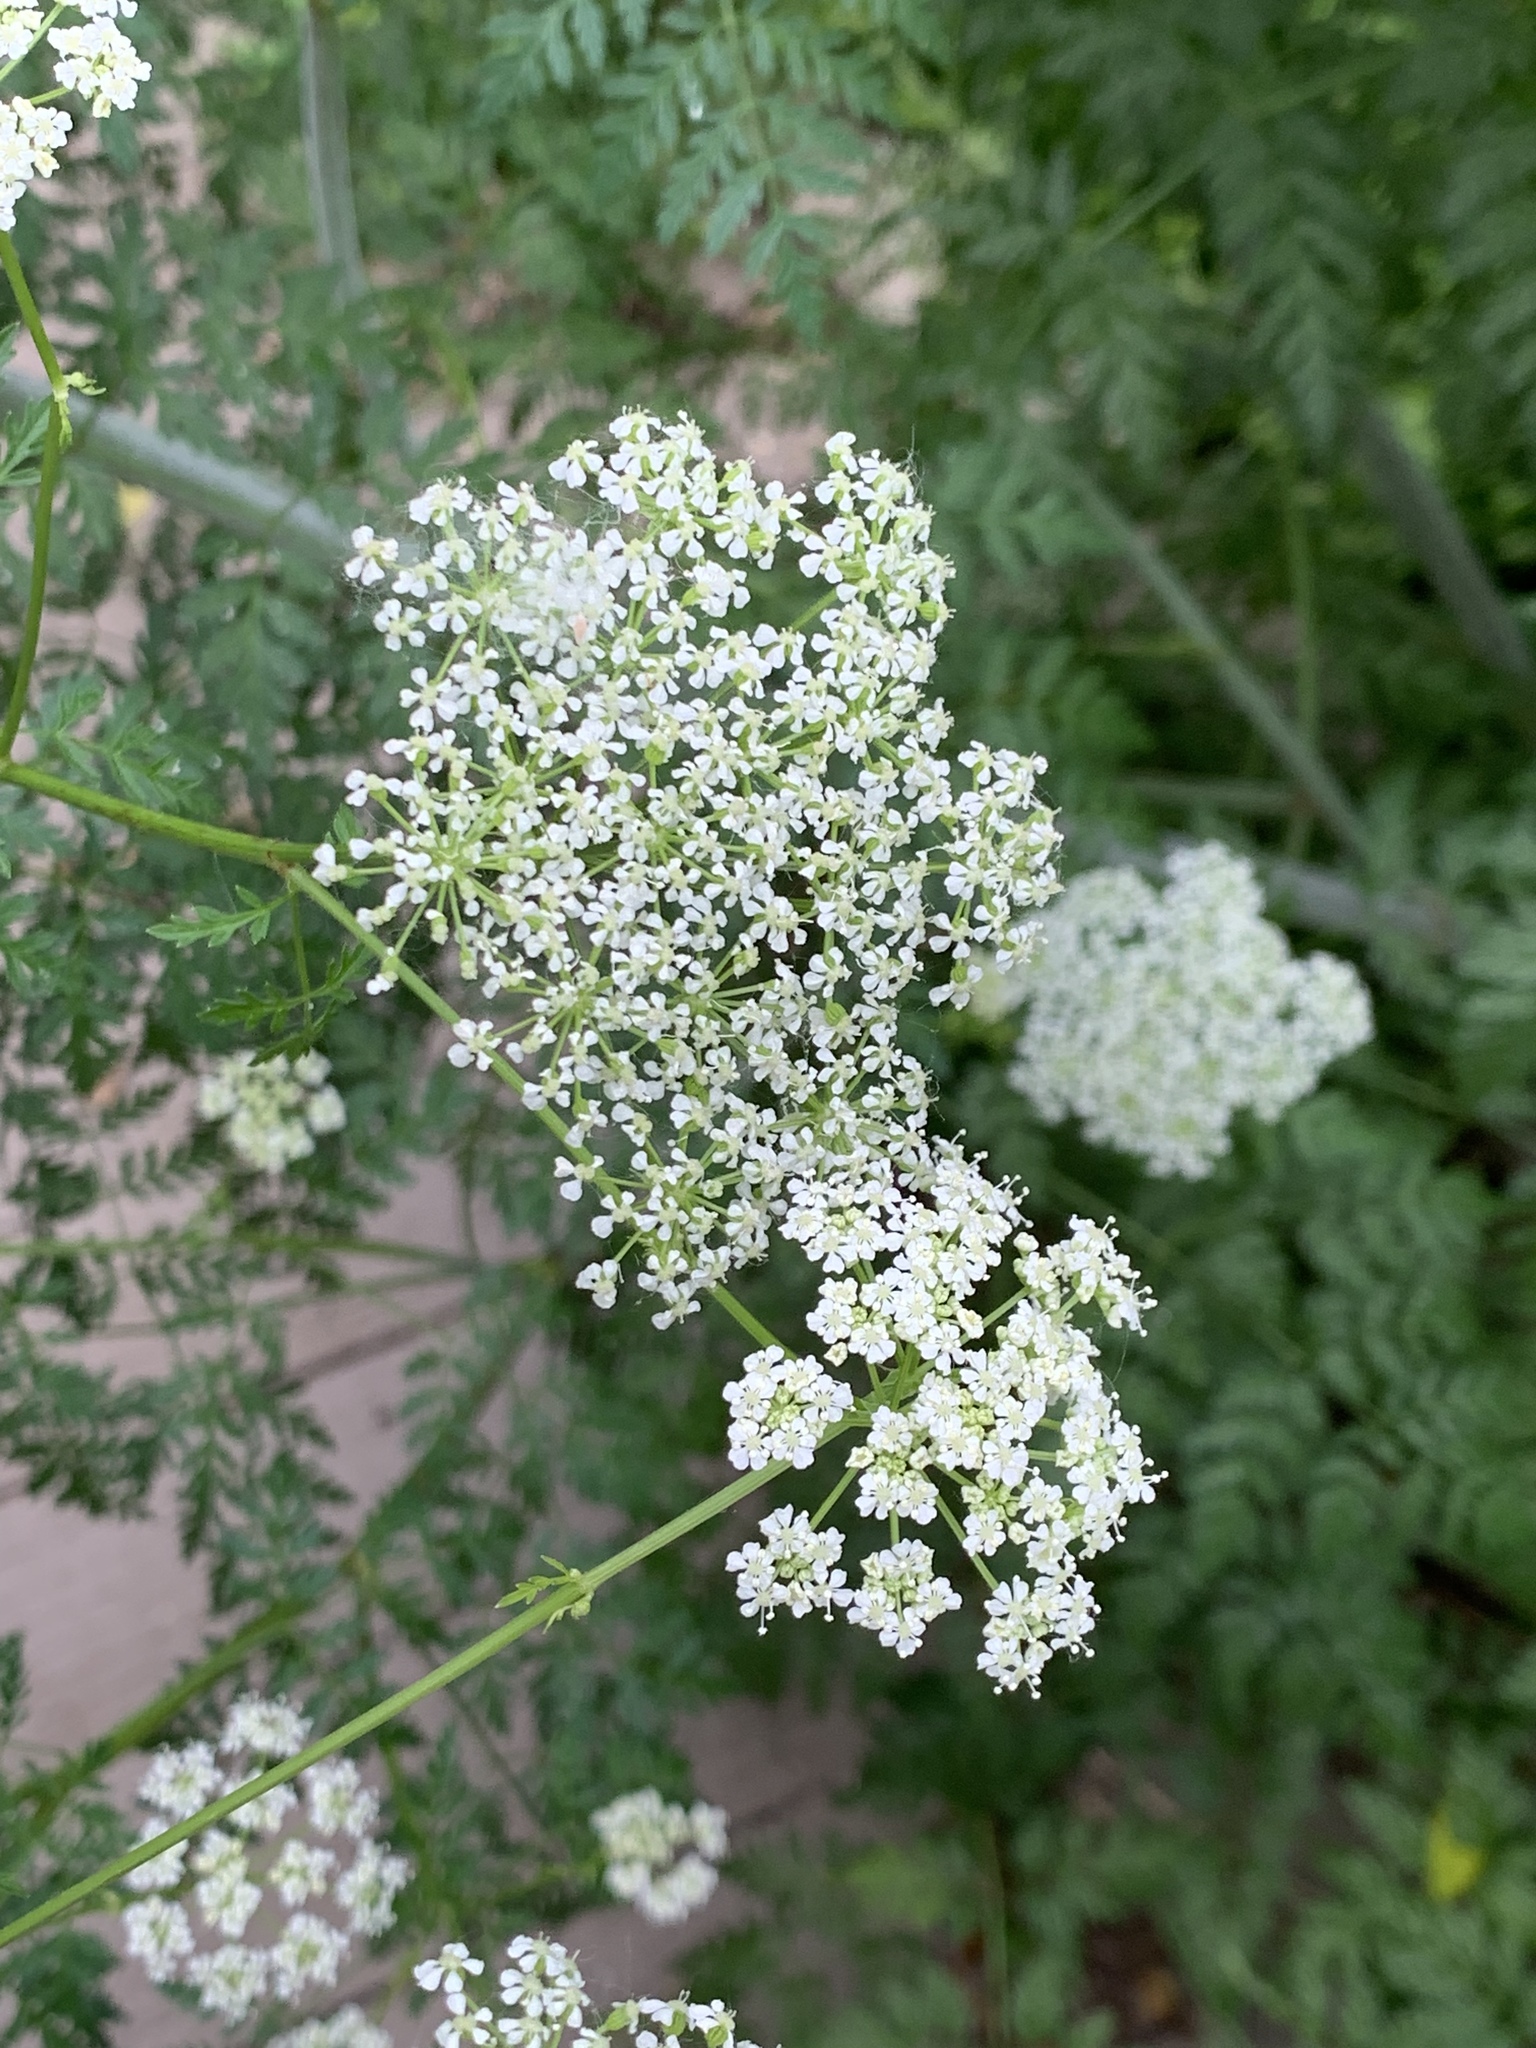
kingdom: Plantae
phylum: Tracheophyta
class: Magnoliopsida
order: Apiales
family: Apiaceae
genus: Conium
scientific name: Conium maculatum
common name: Hemlock
